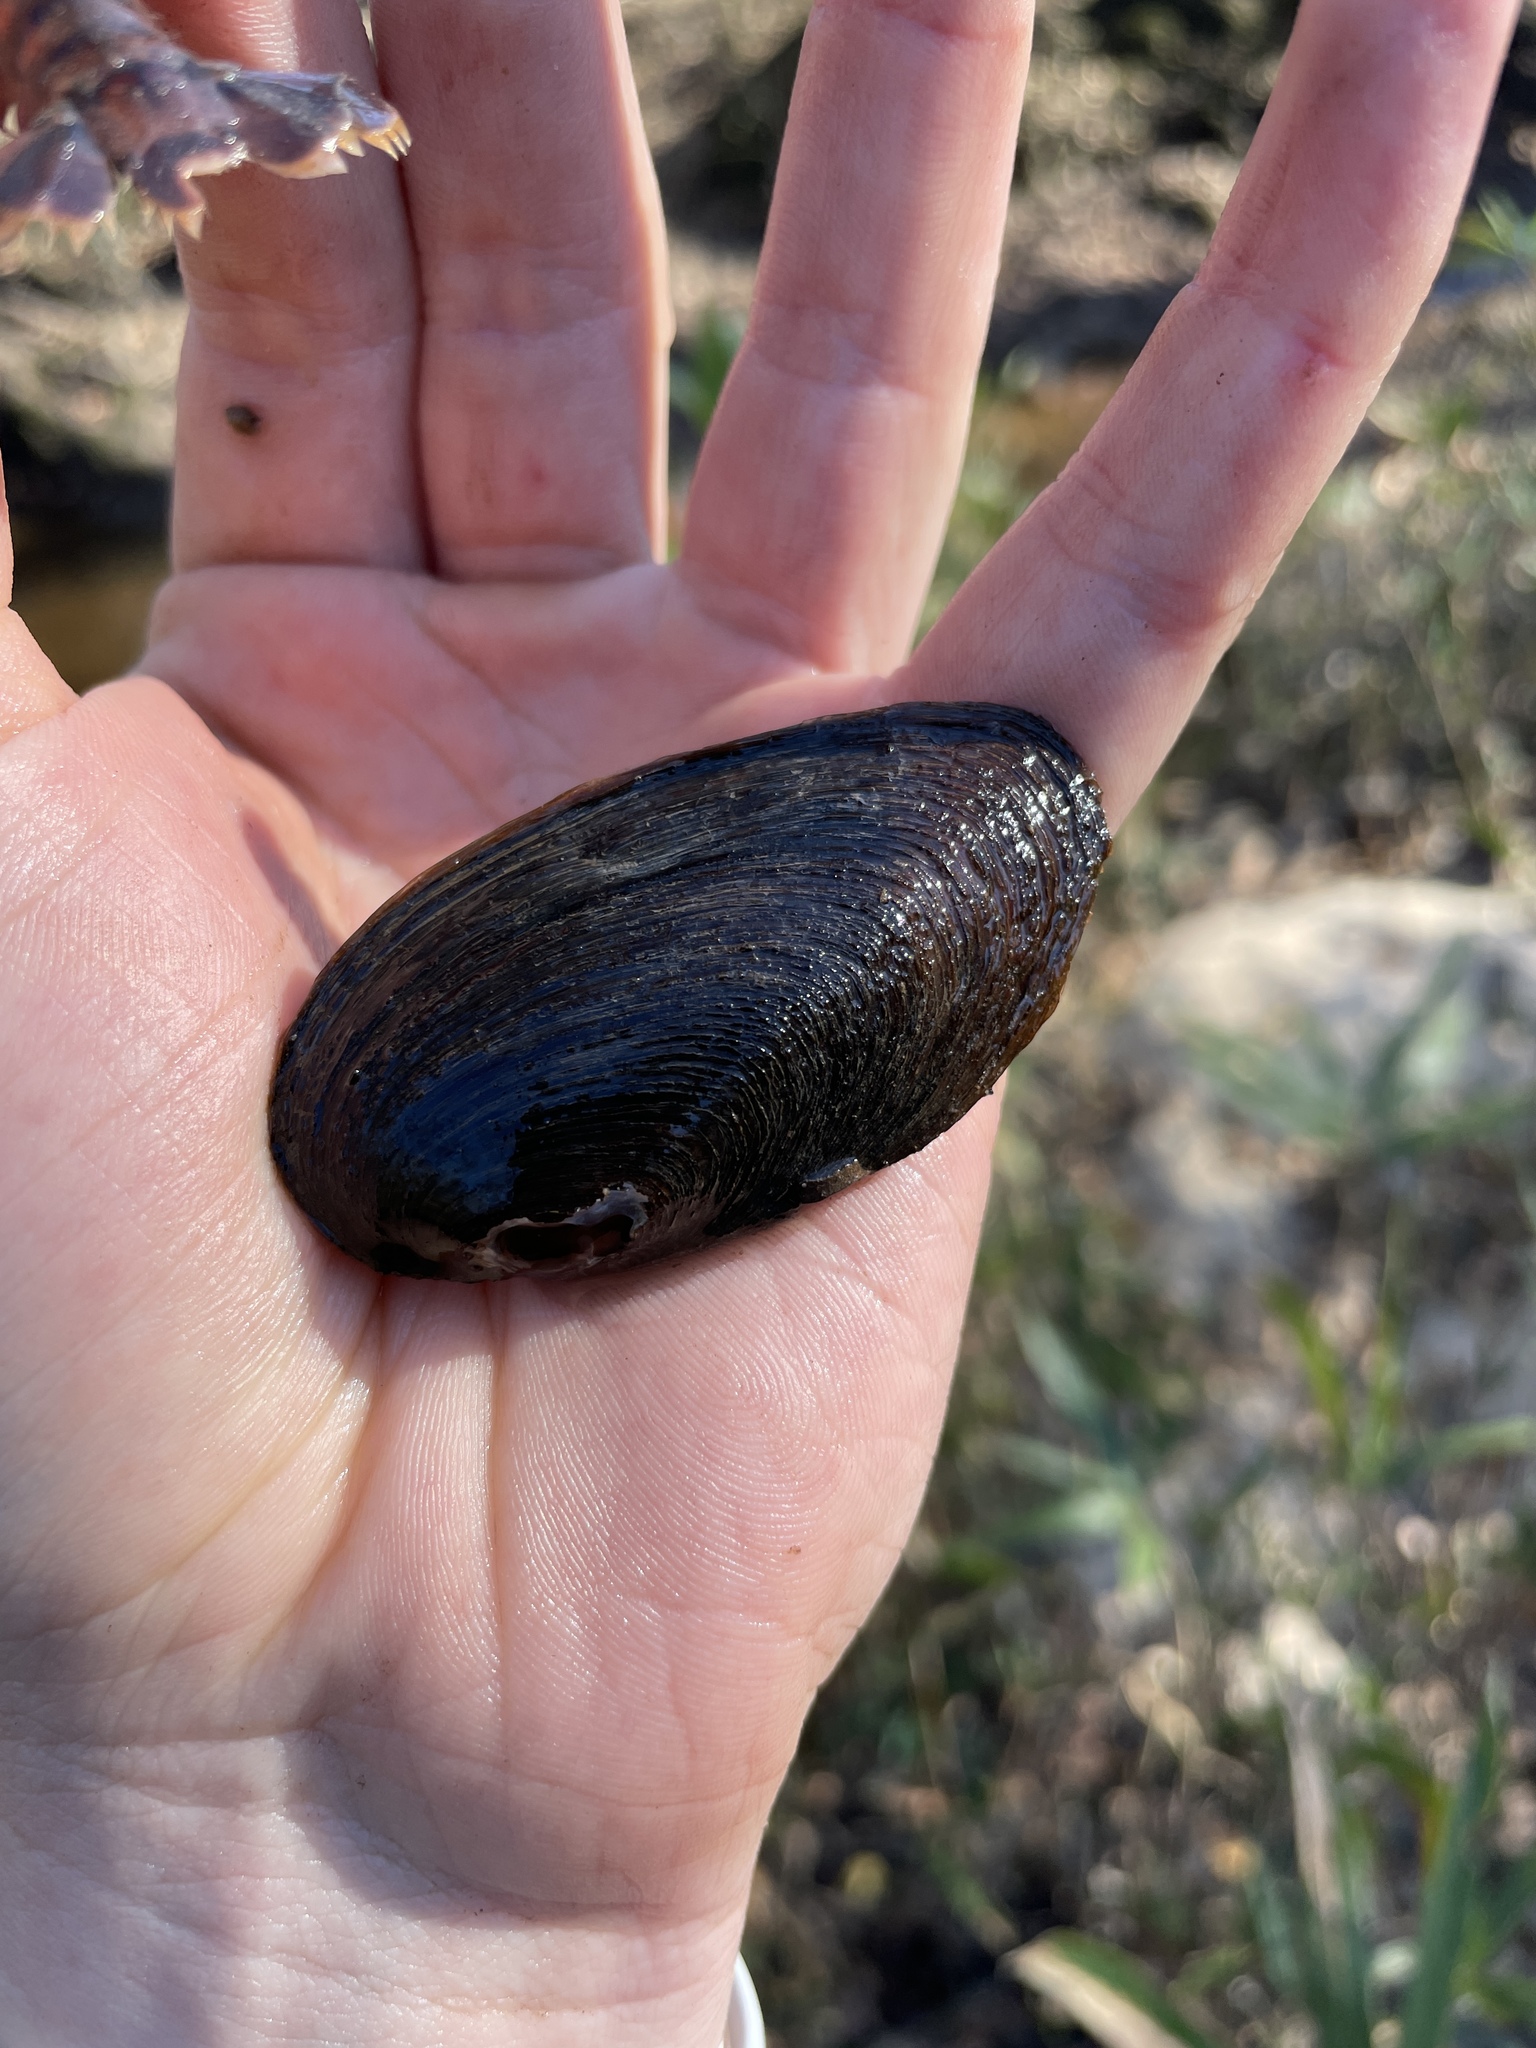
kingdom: Animalia
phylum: Mollusca
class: Bivalvia
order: Unionida
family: Unionidae
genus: Elliptio
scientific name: Elliptio pullata
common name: Gulf spike
